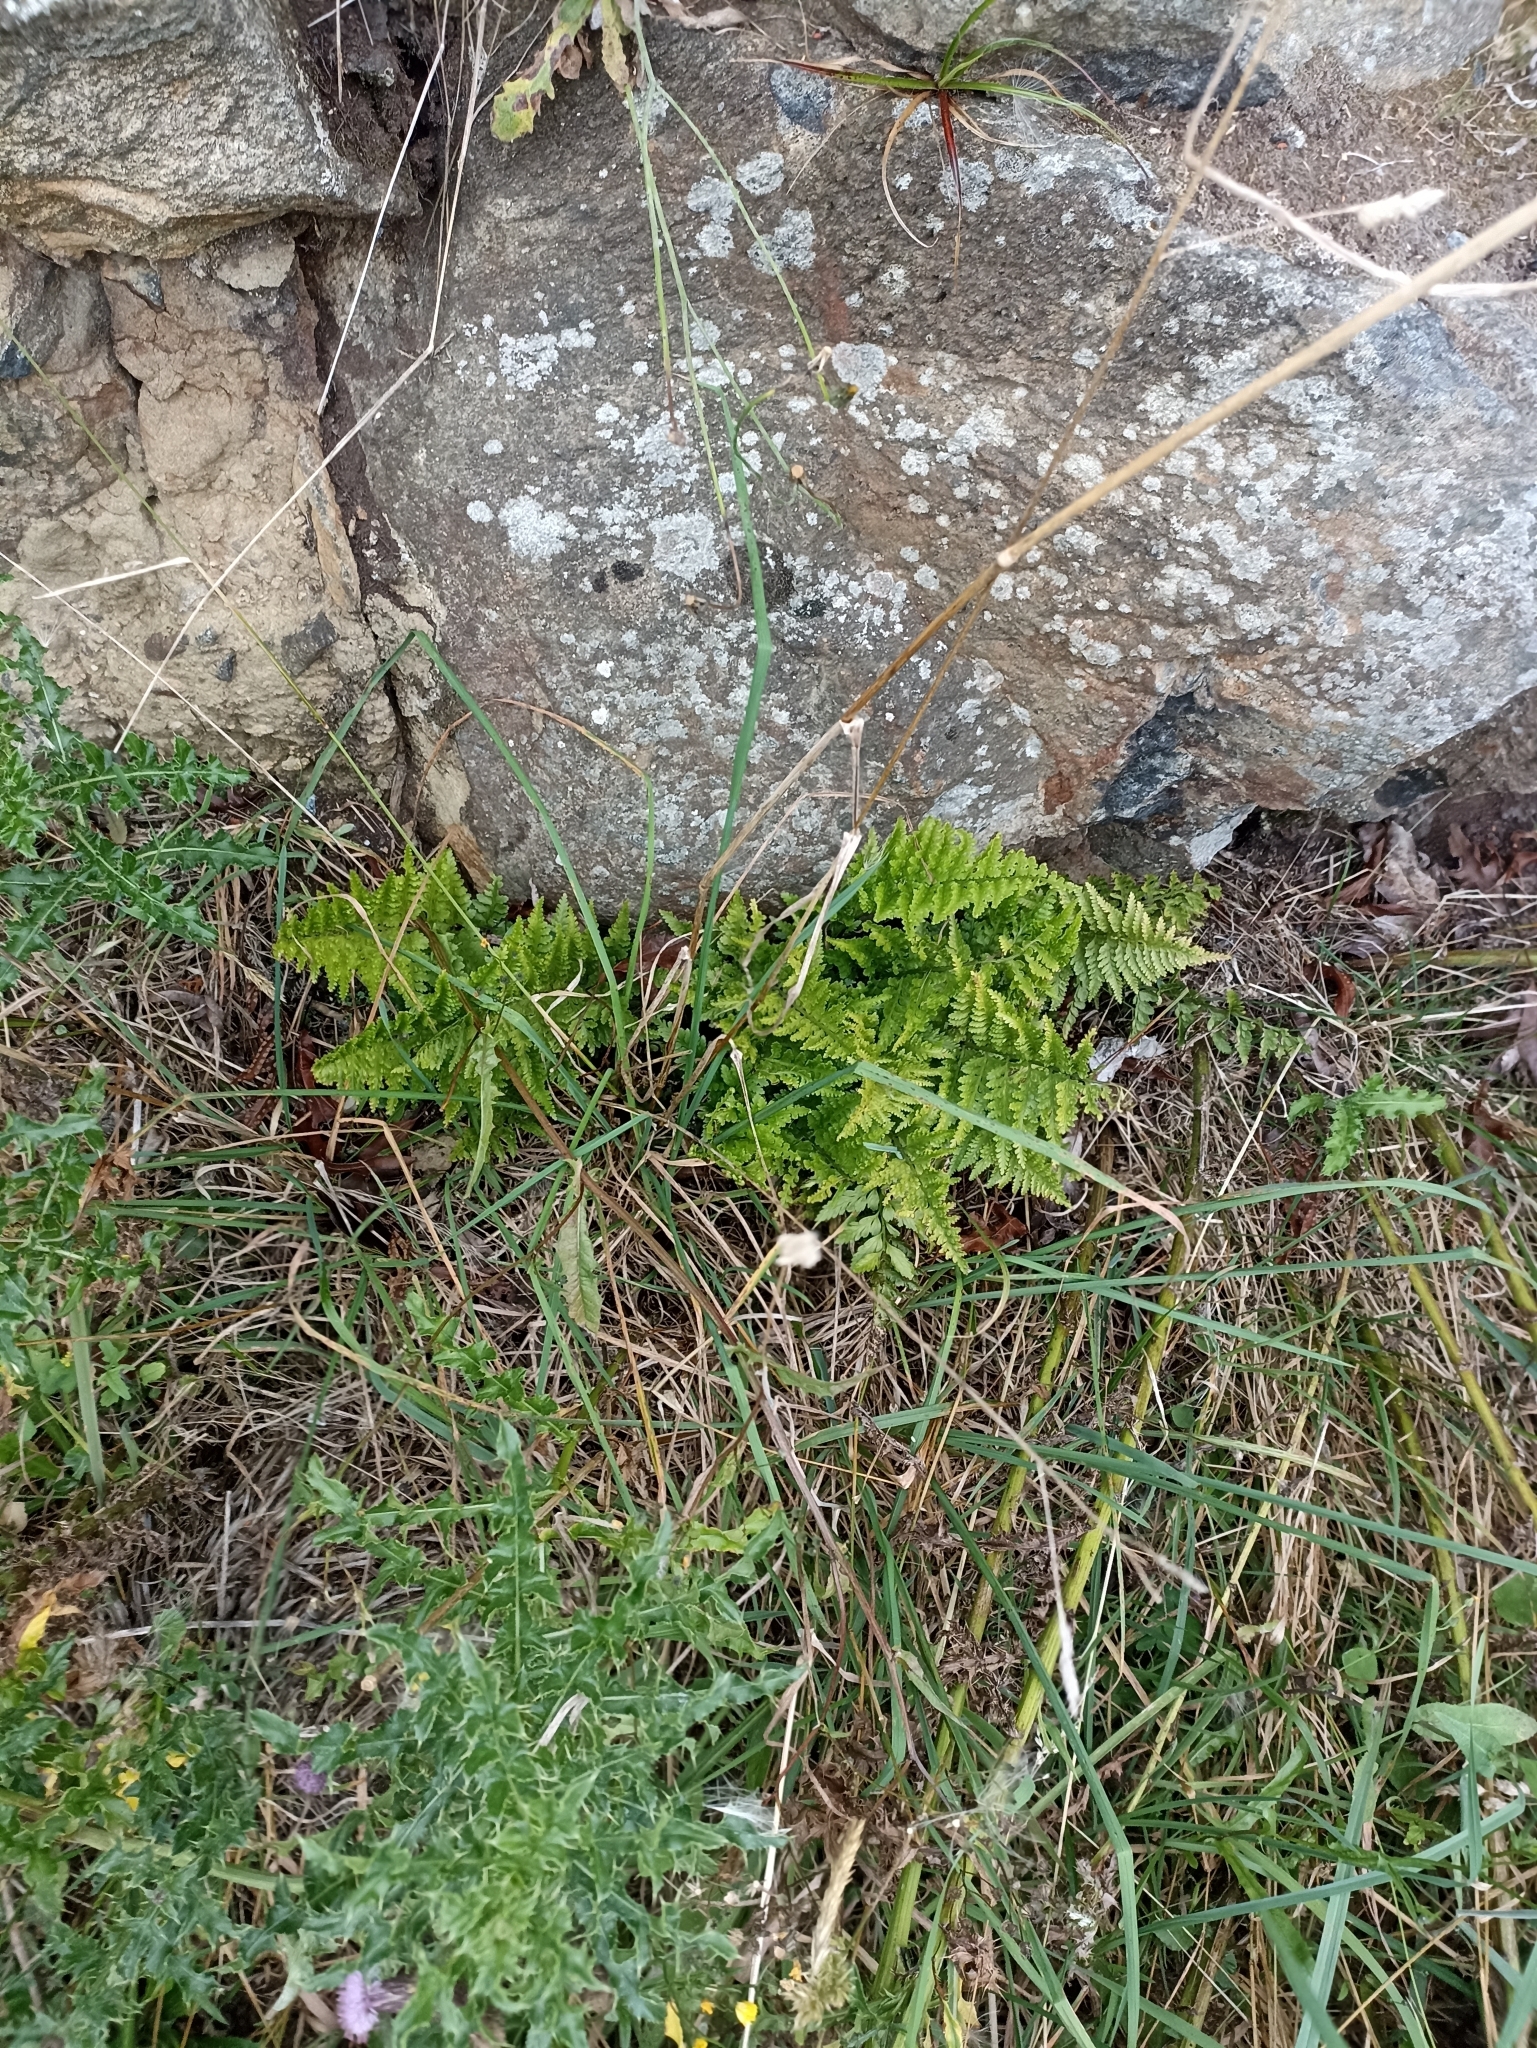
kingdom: Plantae
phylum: Tracheophyta
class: Polypodiopsida
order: Polypodiales
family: Aspleniaceae
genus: Asplenium
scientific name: Asplenium
